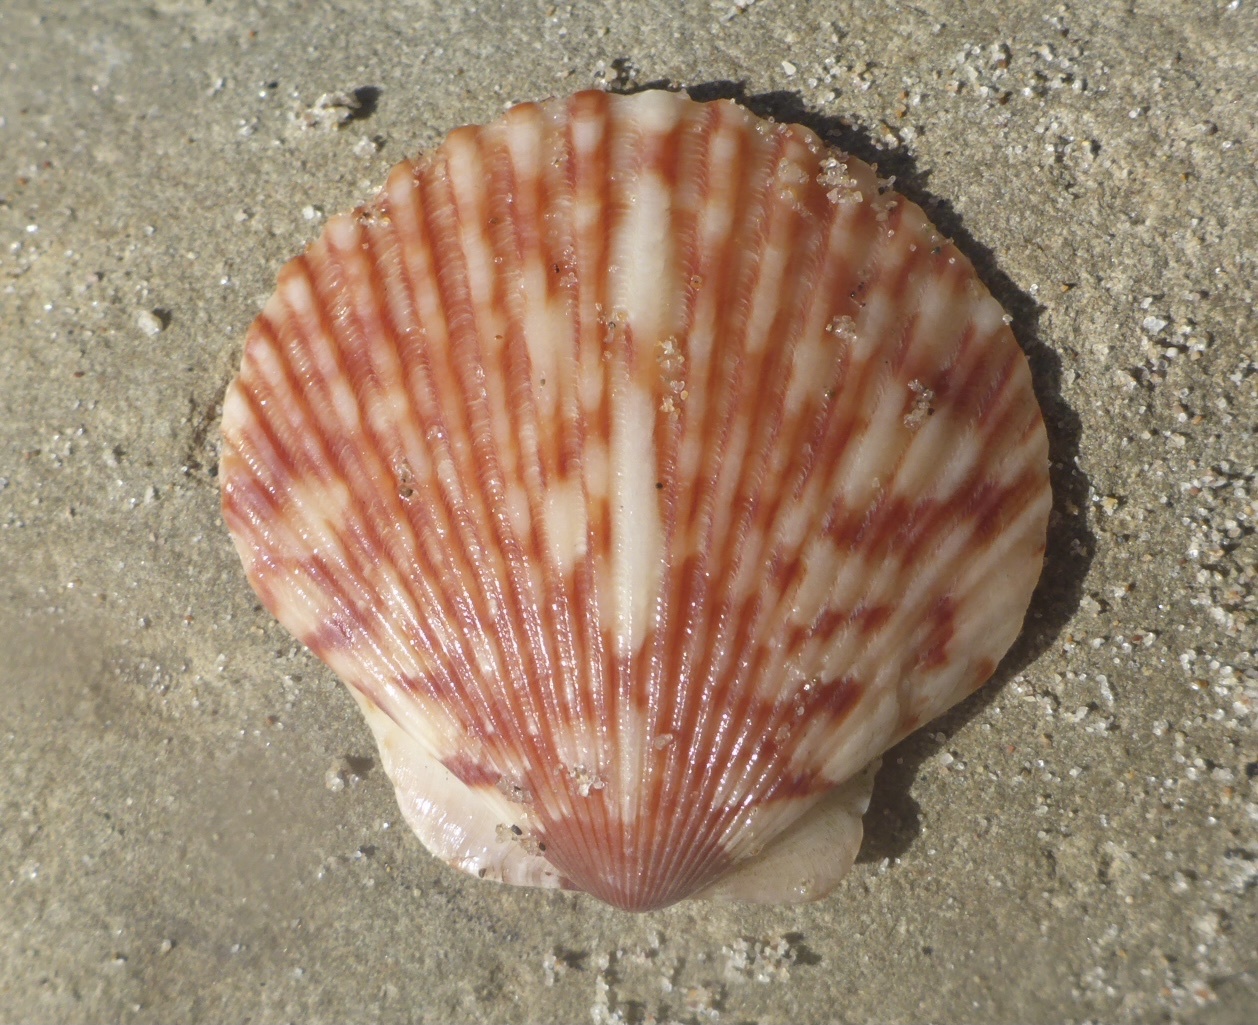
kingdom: Animalia
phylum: Mollusca
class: Bivalvia
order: Pectinida
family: Pectinidae
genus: Argopecten
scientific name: Argopecten ventricosus
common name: Catarina scallop
